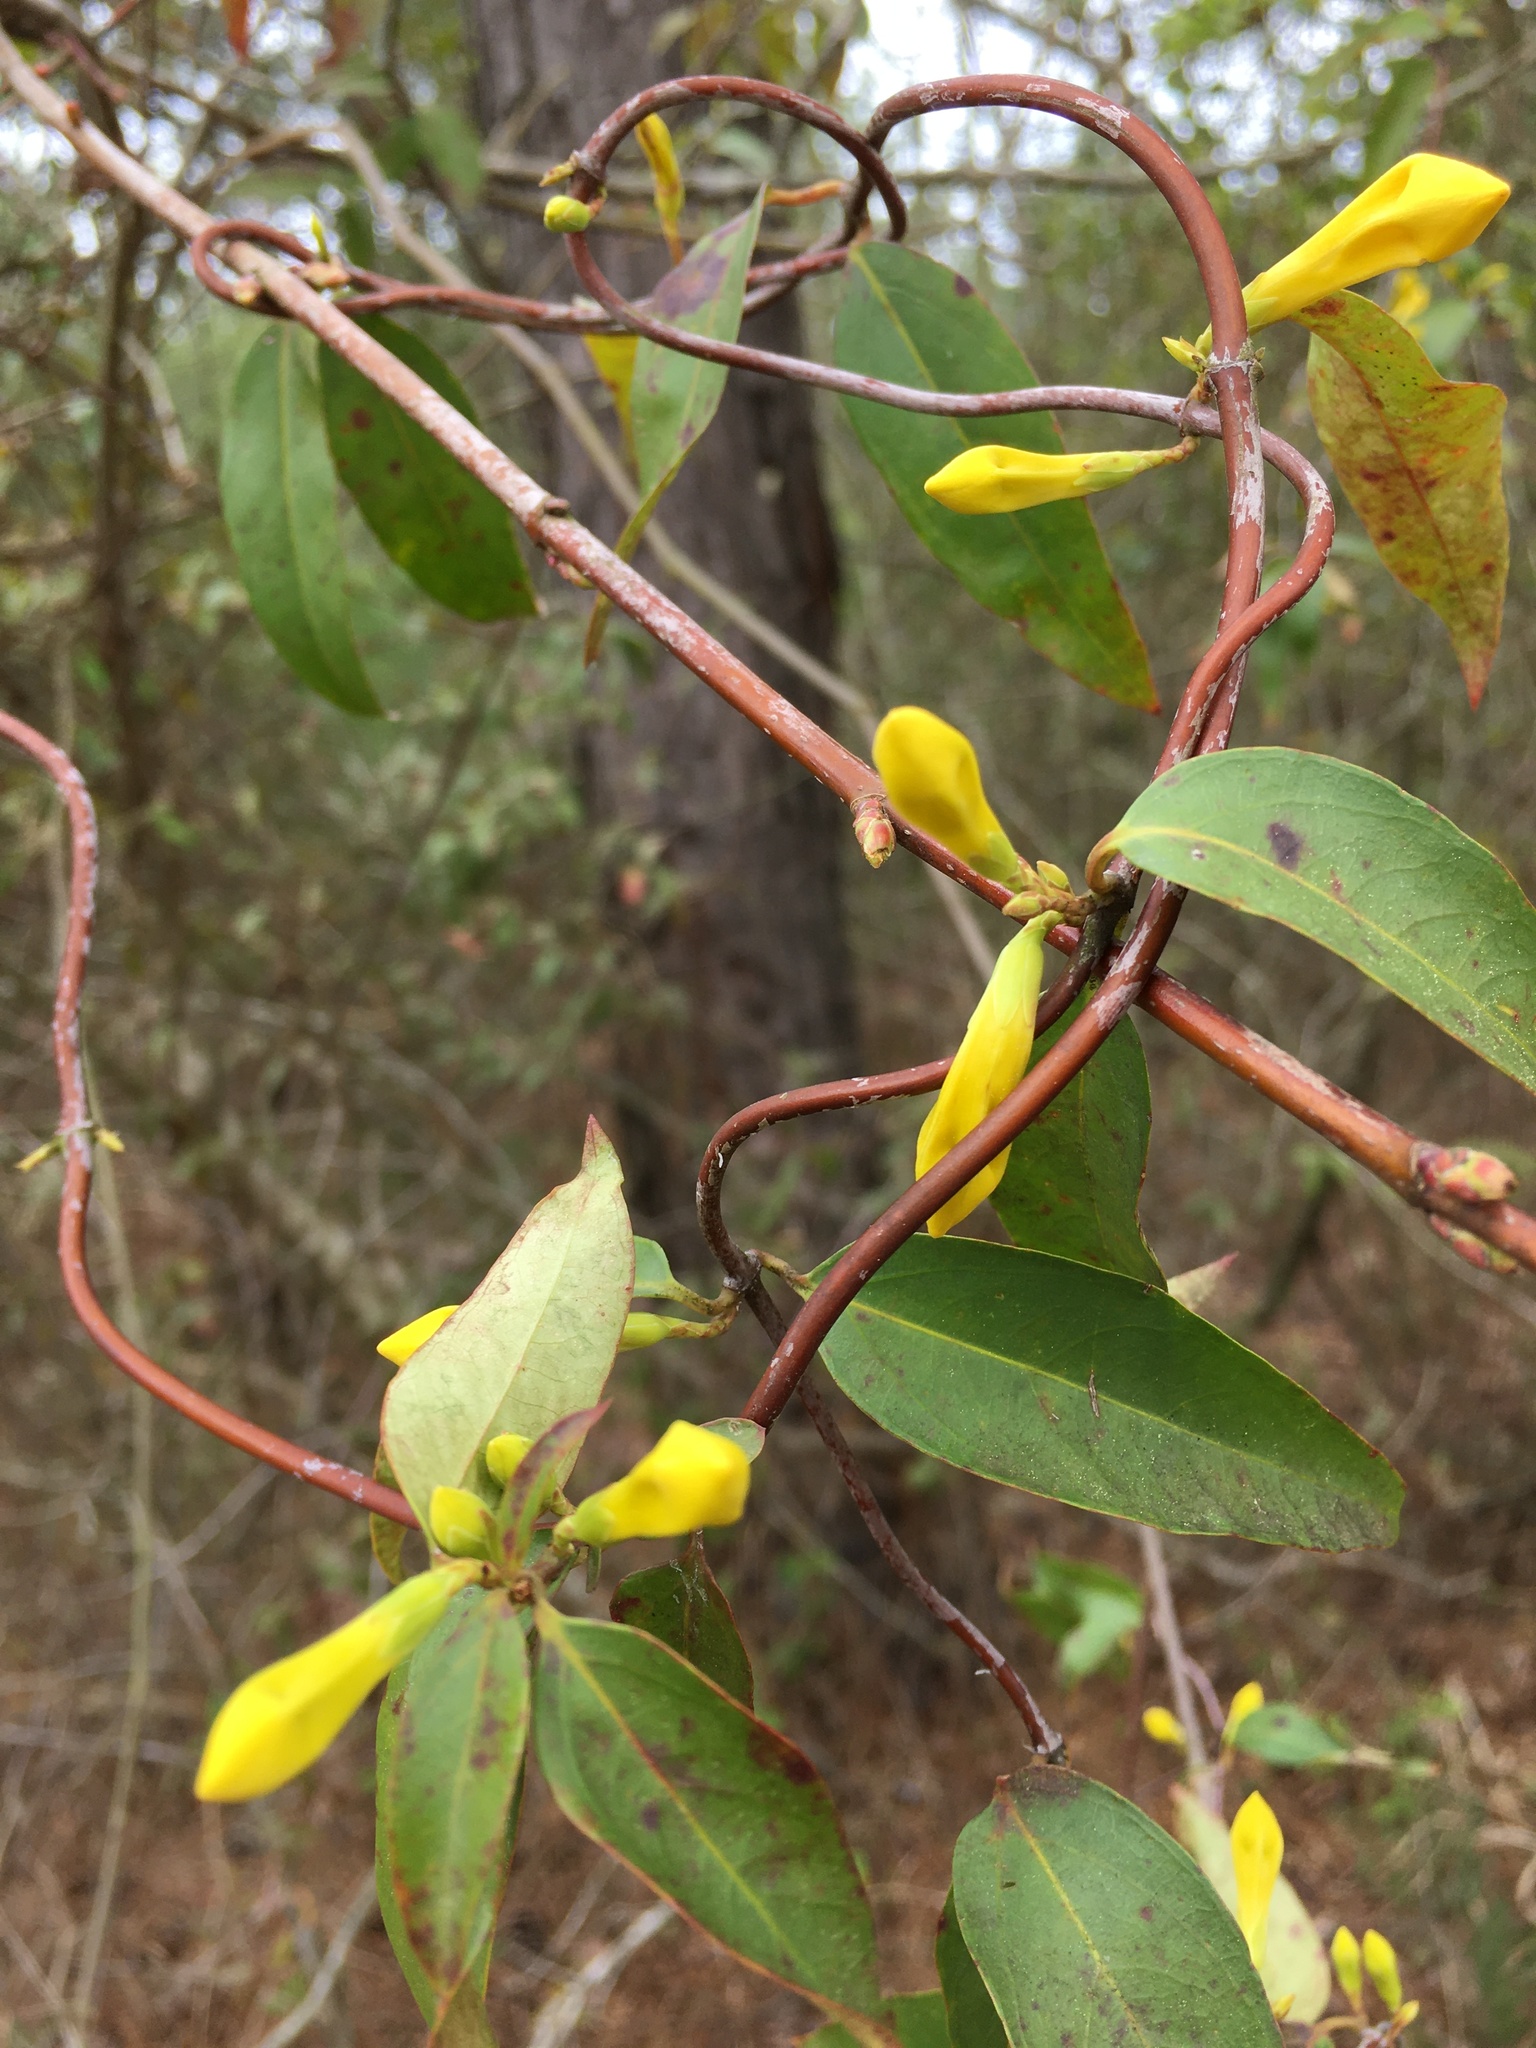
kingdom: Plantae
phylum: Tracheophyta
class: Magnoliopsida
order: Gentianales
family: Gelsemiaceae
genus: Gelsemium
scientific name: Gelsemium sempervirens
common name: Carolina-jasmine
